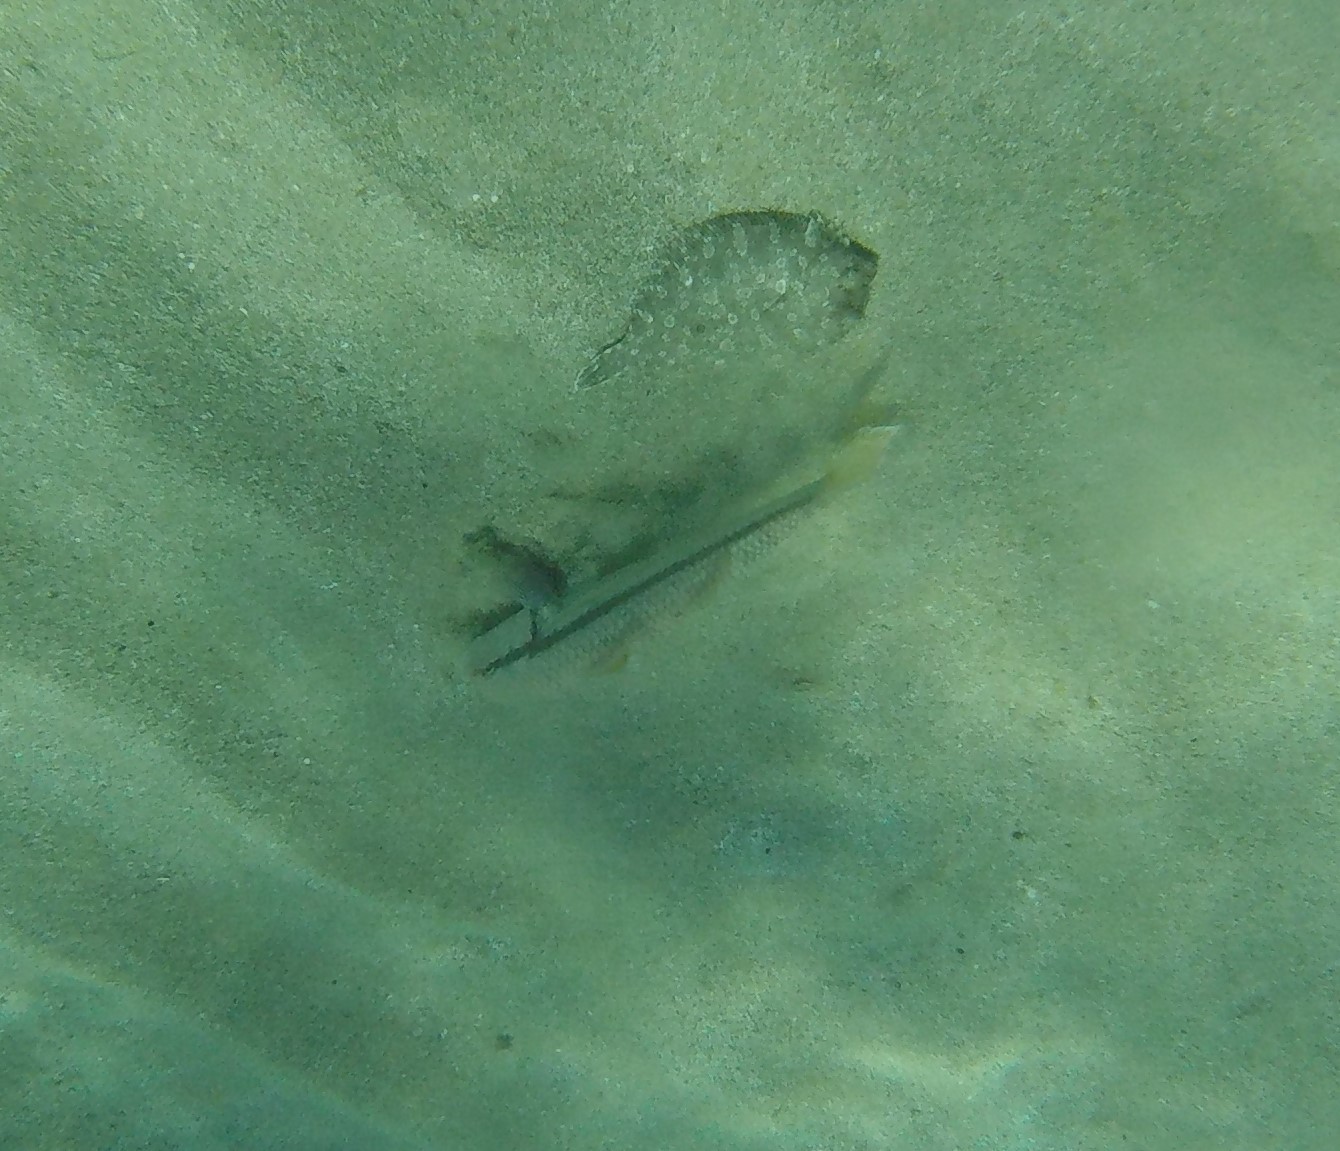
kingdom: Animalia
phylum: Chordata
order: Pleuronectiformes
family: Bothidae
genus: Bothus
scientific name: Bothus podas
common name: Wide-eyed flounder
